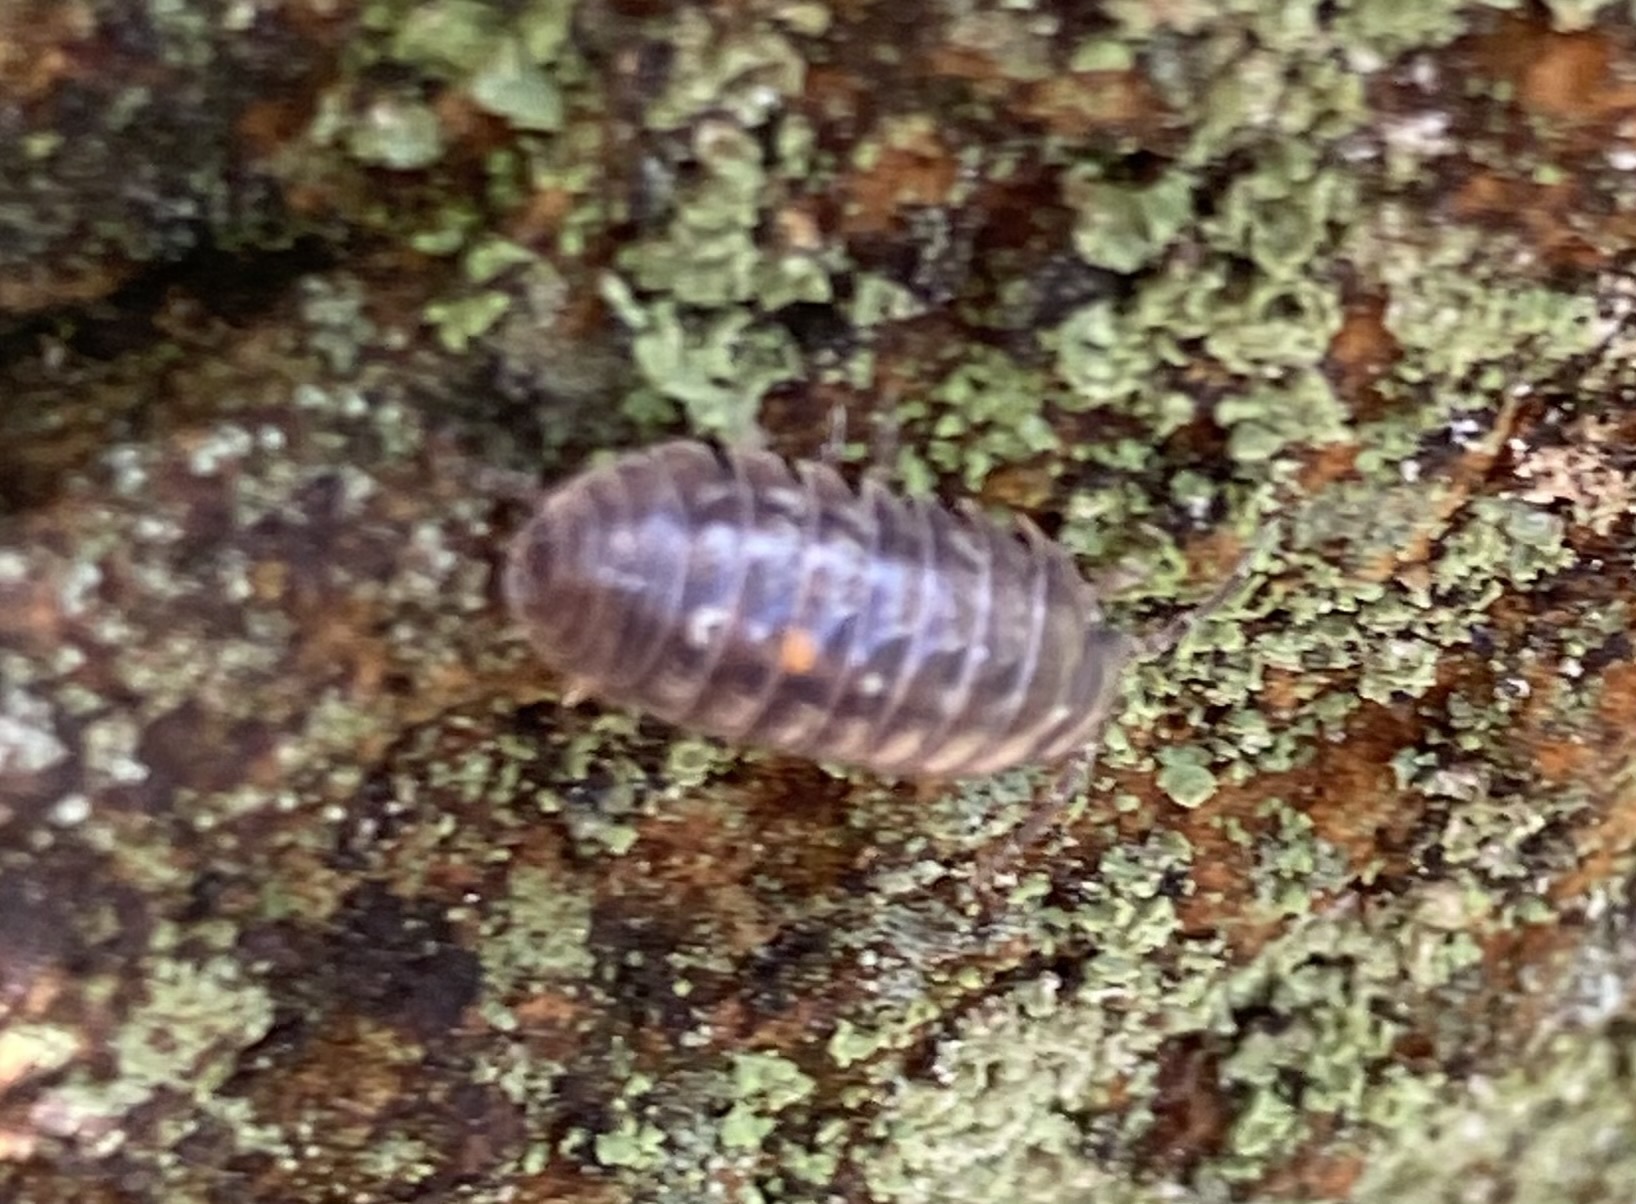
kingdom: Animalia
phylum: Arthropoda
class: Malacostraca
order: Isopoda
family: Armadillidiidae
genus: Armadillidium
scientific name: Armadillidium vulgare
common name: Common pill woodlouse
